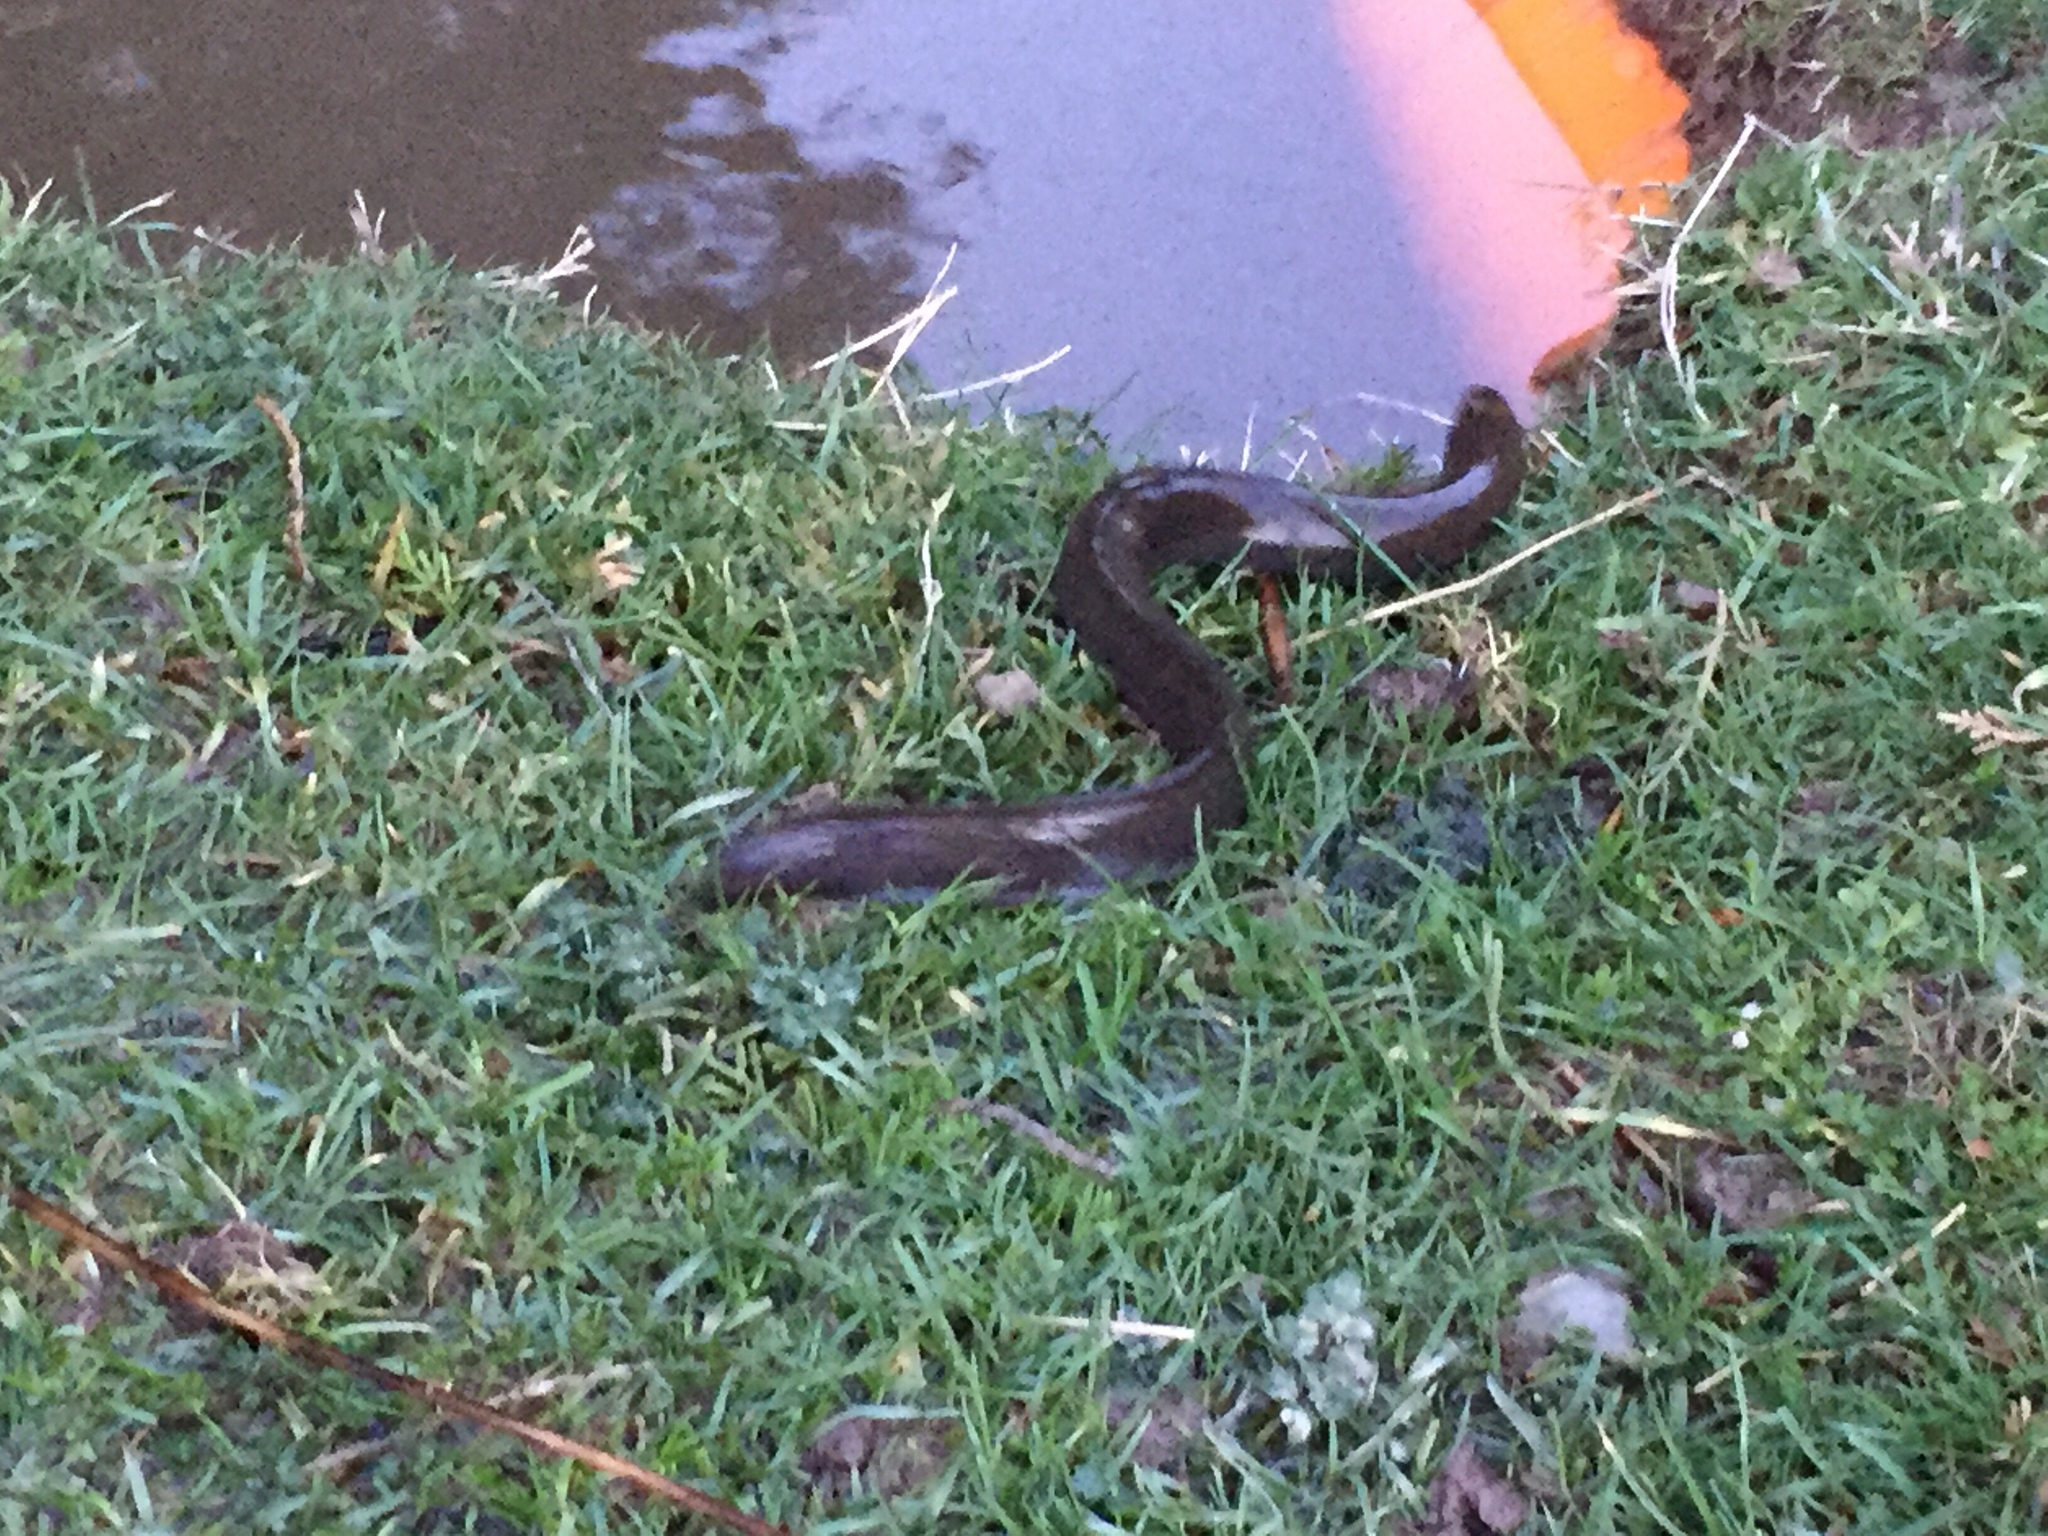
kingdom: Animalia
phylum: Chordata
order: Anguilliformes
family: Anguillidae
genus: Anguilla
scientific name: Anguilla australis
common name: Shortfin eel
